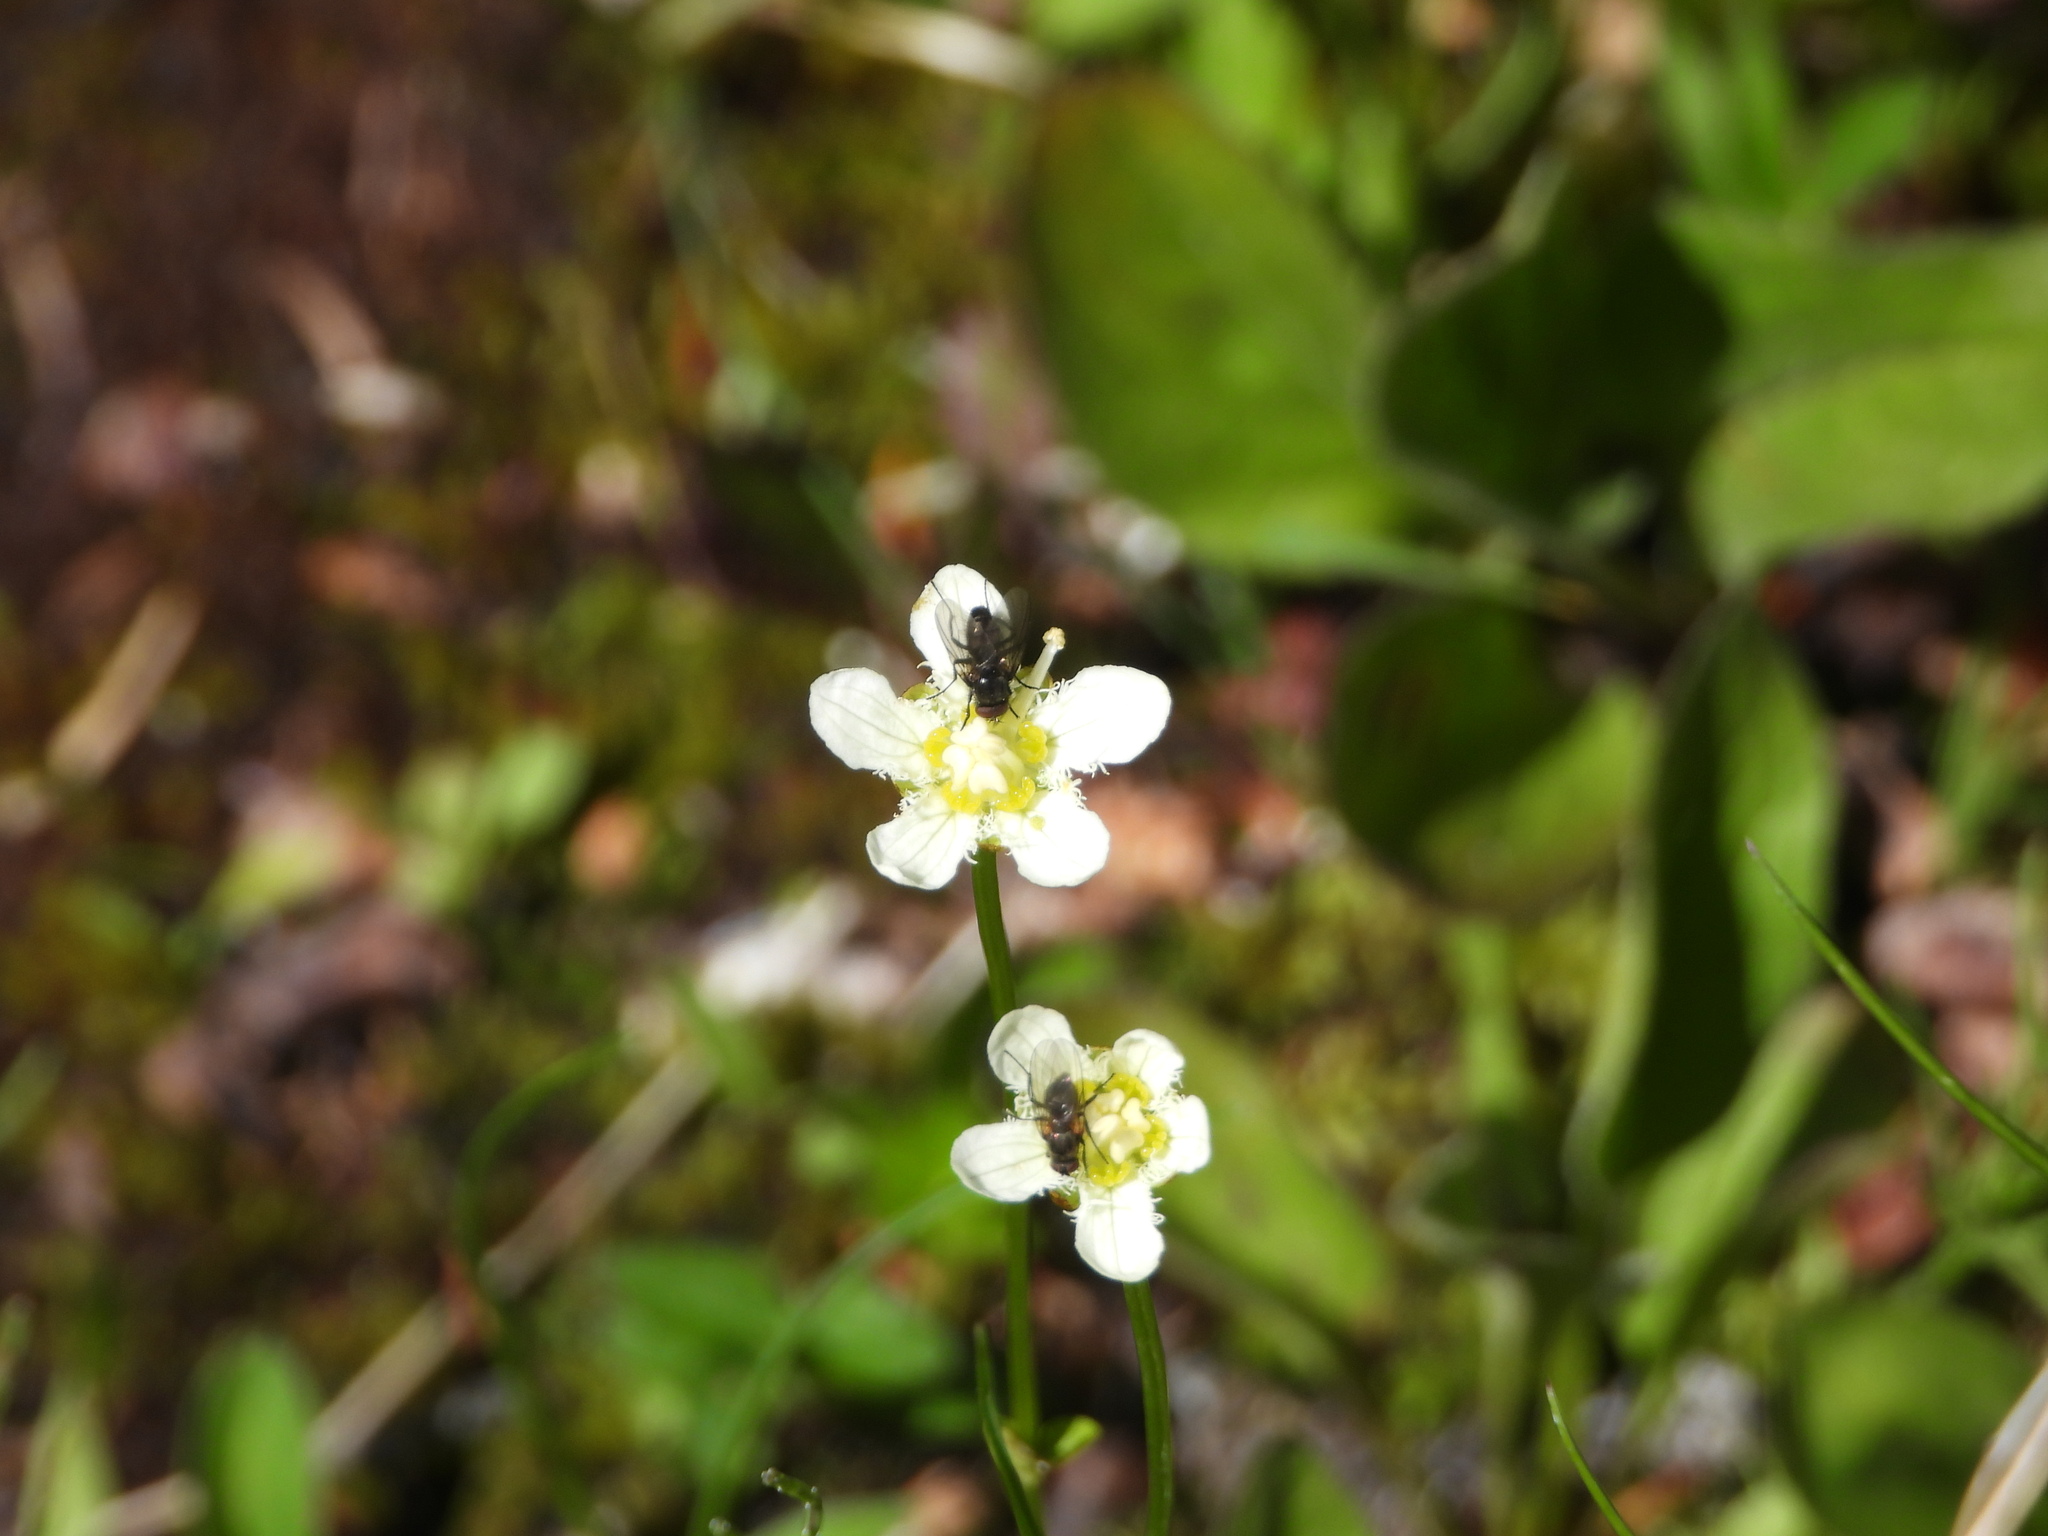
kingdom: Plantae
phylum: Tracheophyta
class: Magnoliopsida
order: Celastrales
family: Parnassiaceae
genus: Parnassia
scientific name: Parnassia fimbriata
